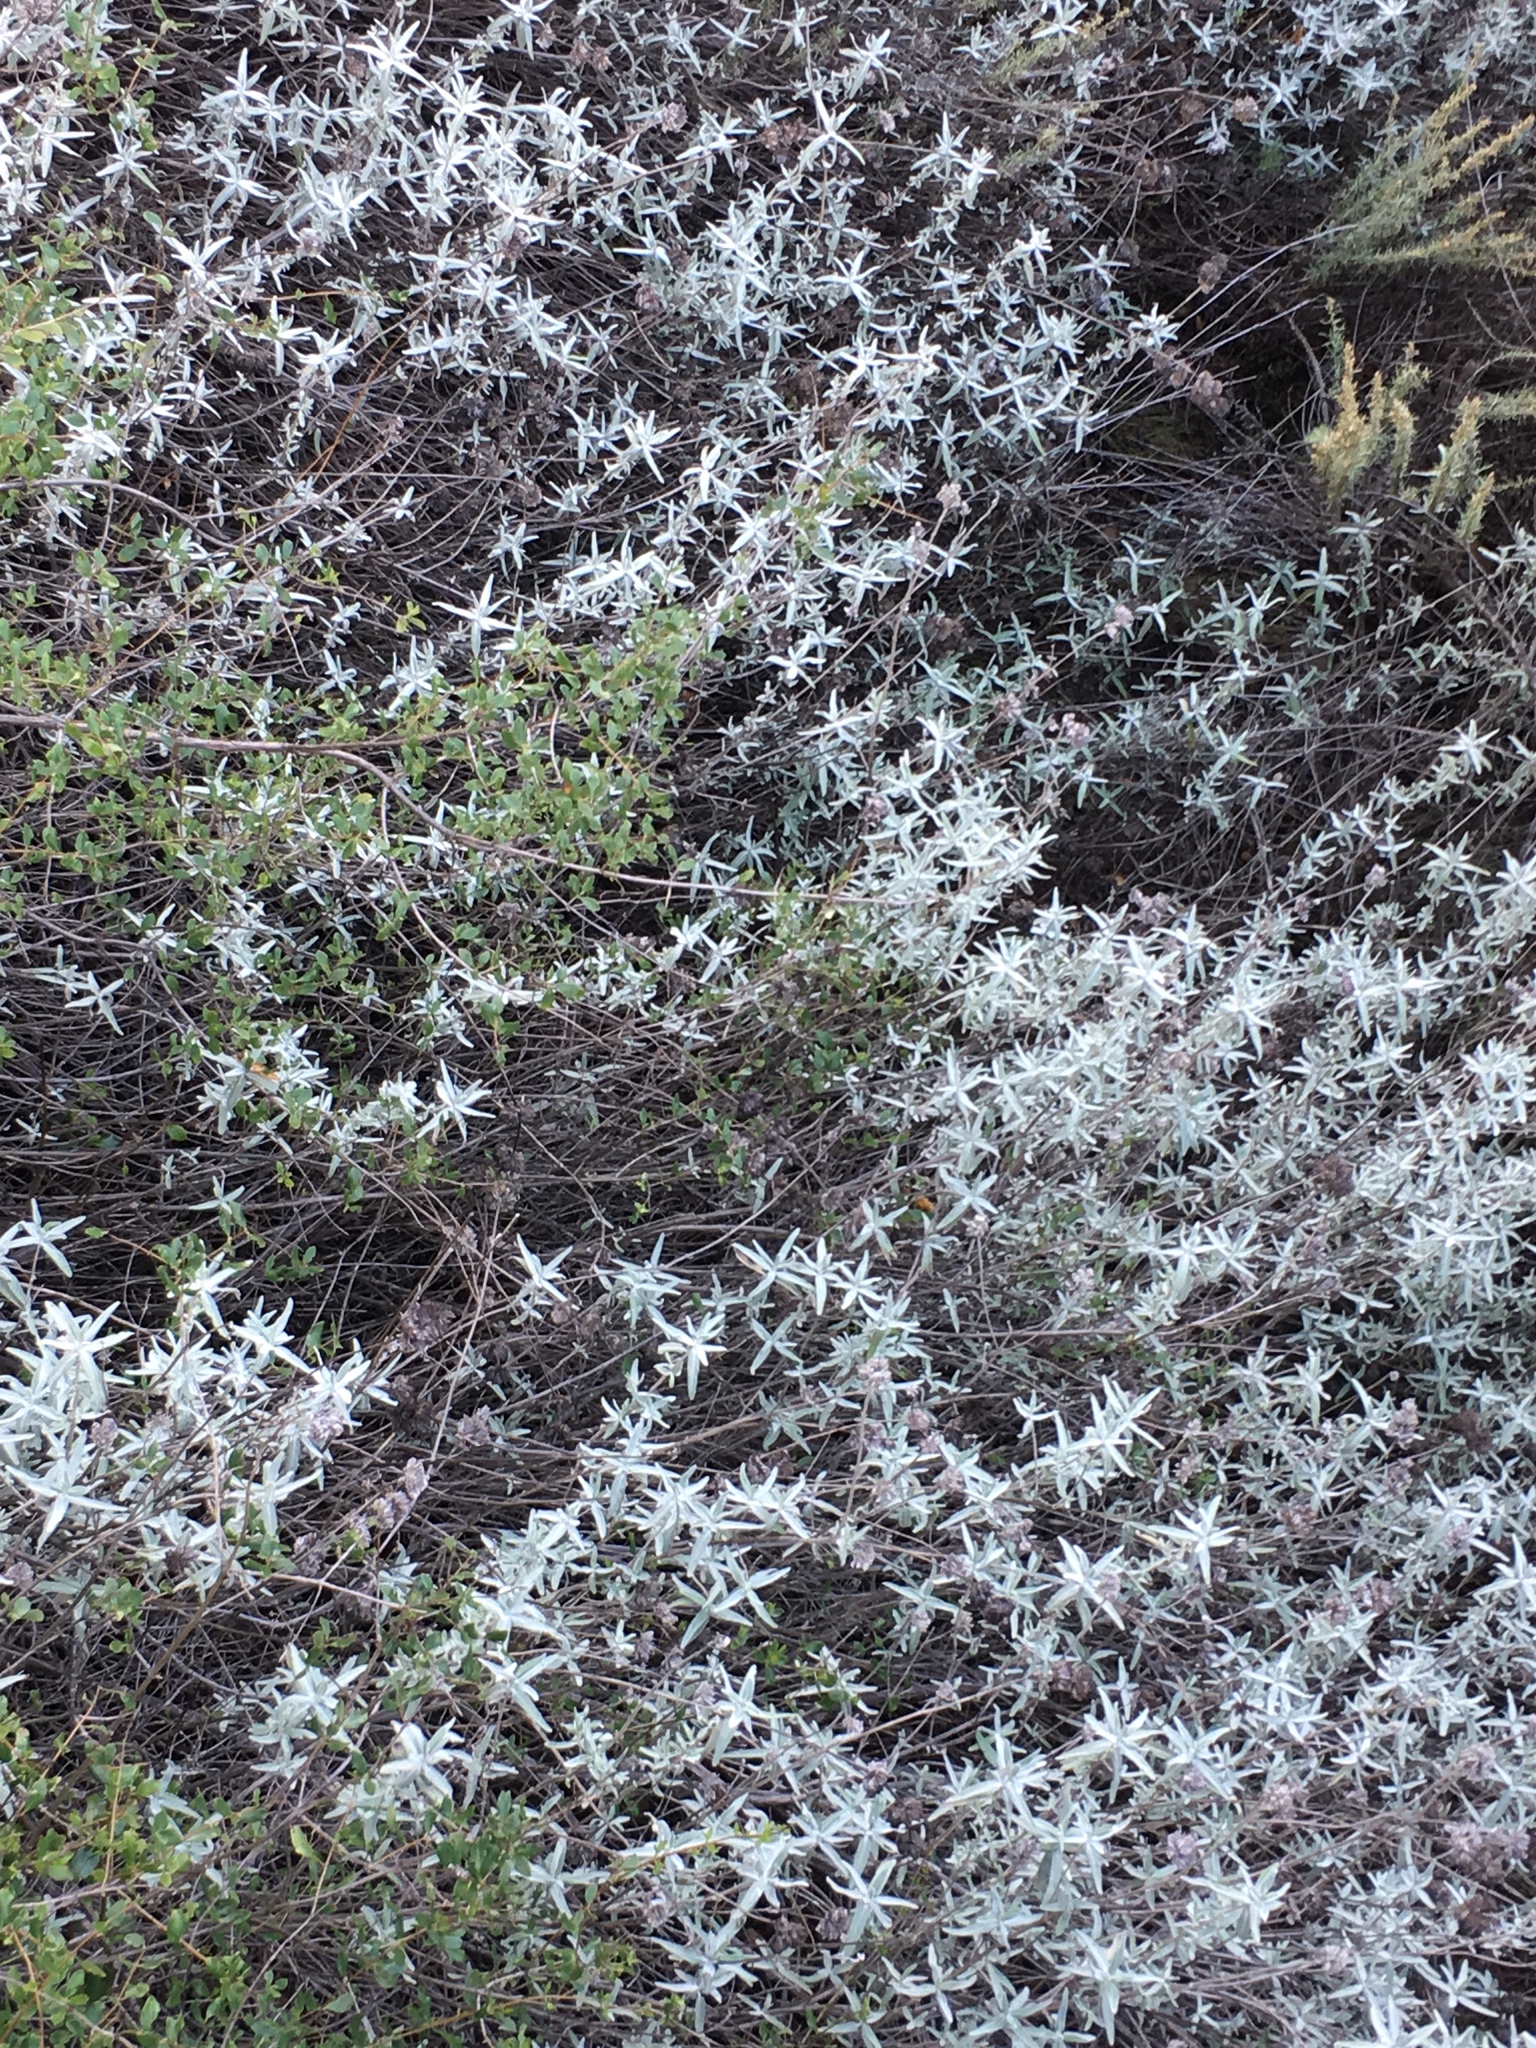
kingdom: Plantae
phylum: Tracheophyta
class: Magnoliopsida
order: Lamiales
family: Lamiaceae
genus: Salvia
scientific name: Salvia leucophylla
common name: Purple sage
